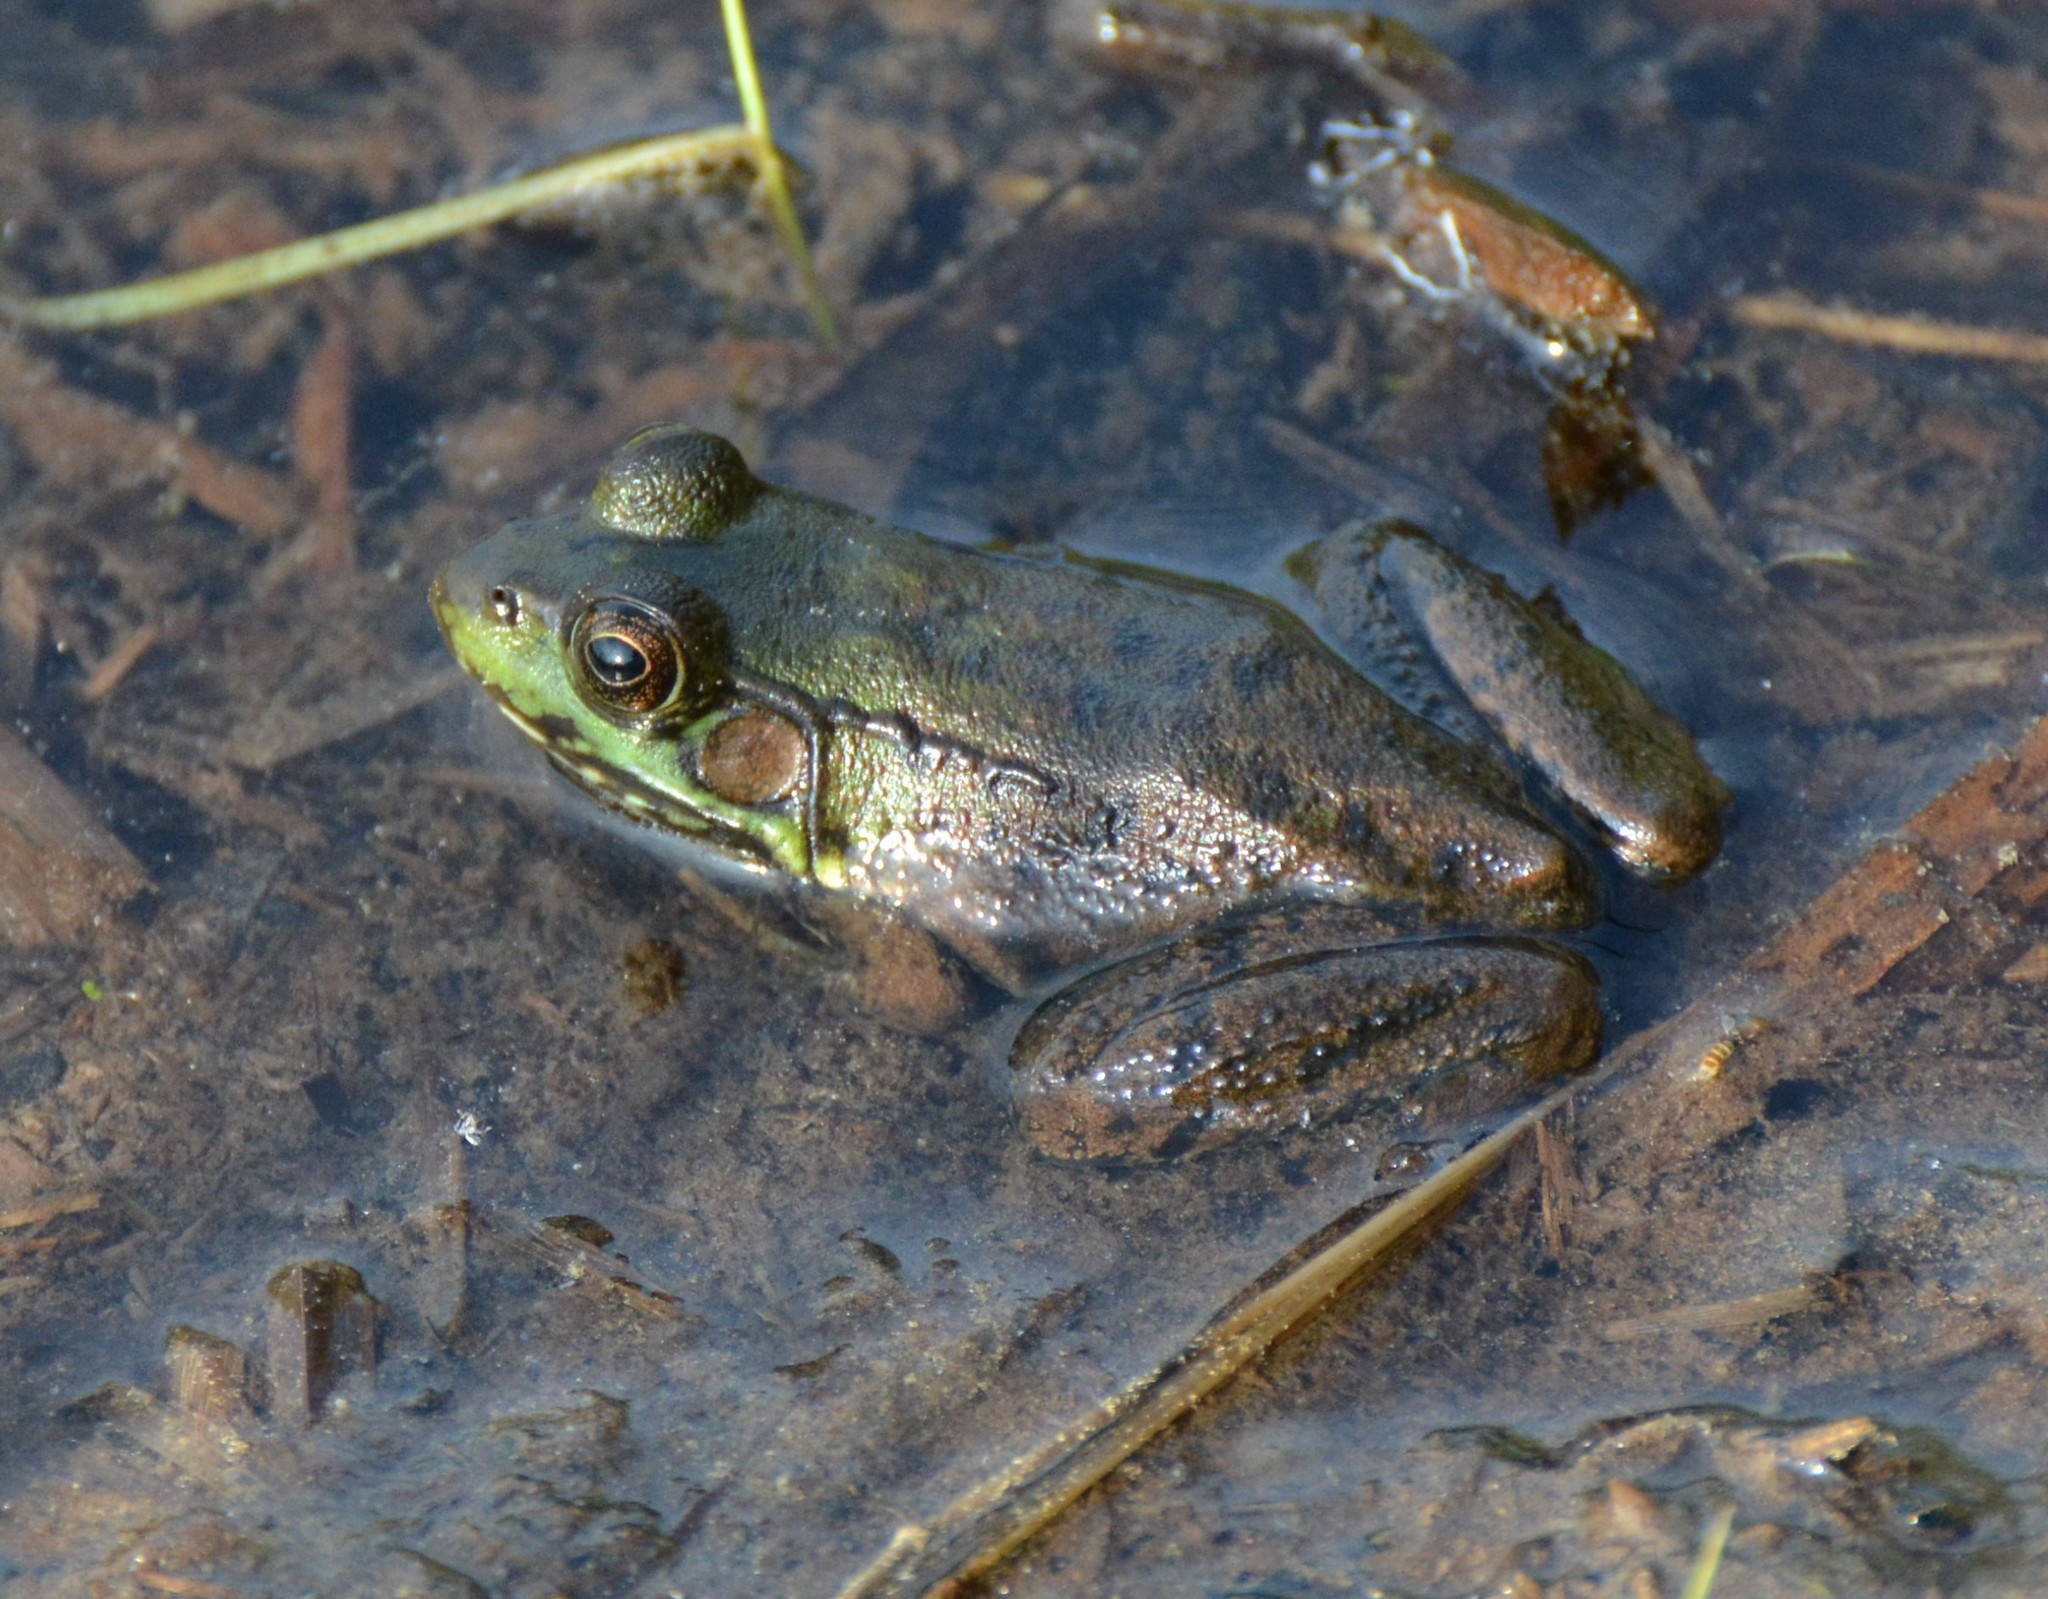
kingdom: Animalia
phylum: Chordata
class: Amphibia
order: Anura
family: Ranidae
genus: Lithobates
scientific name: Lithobates clamitans
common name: Green frog
